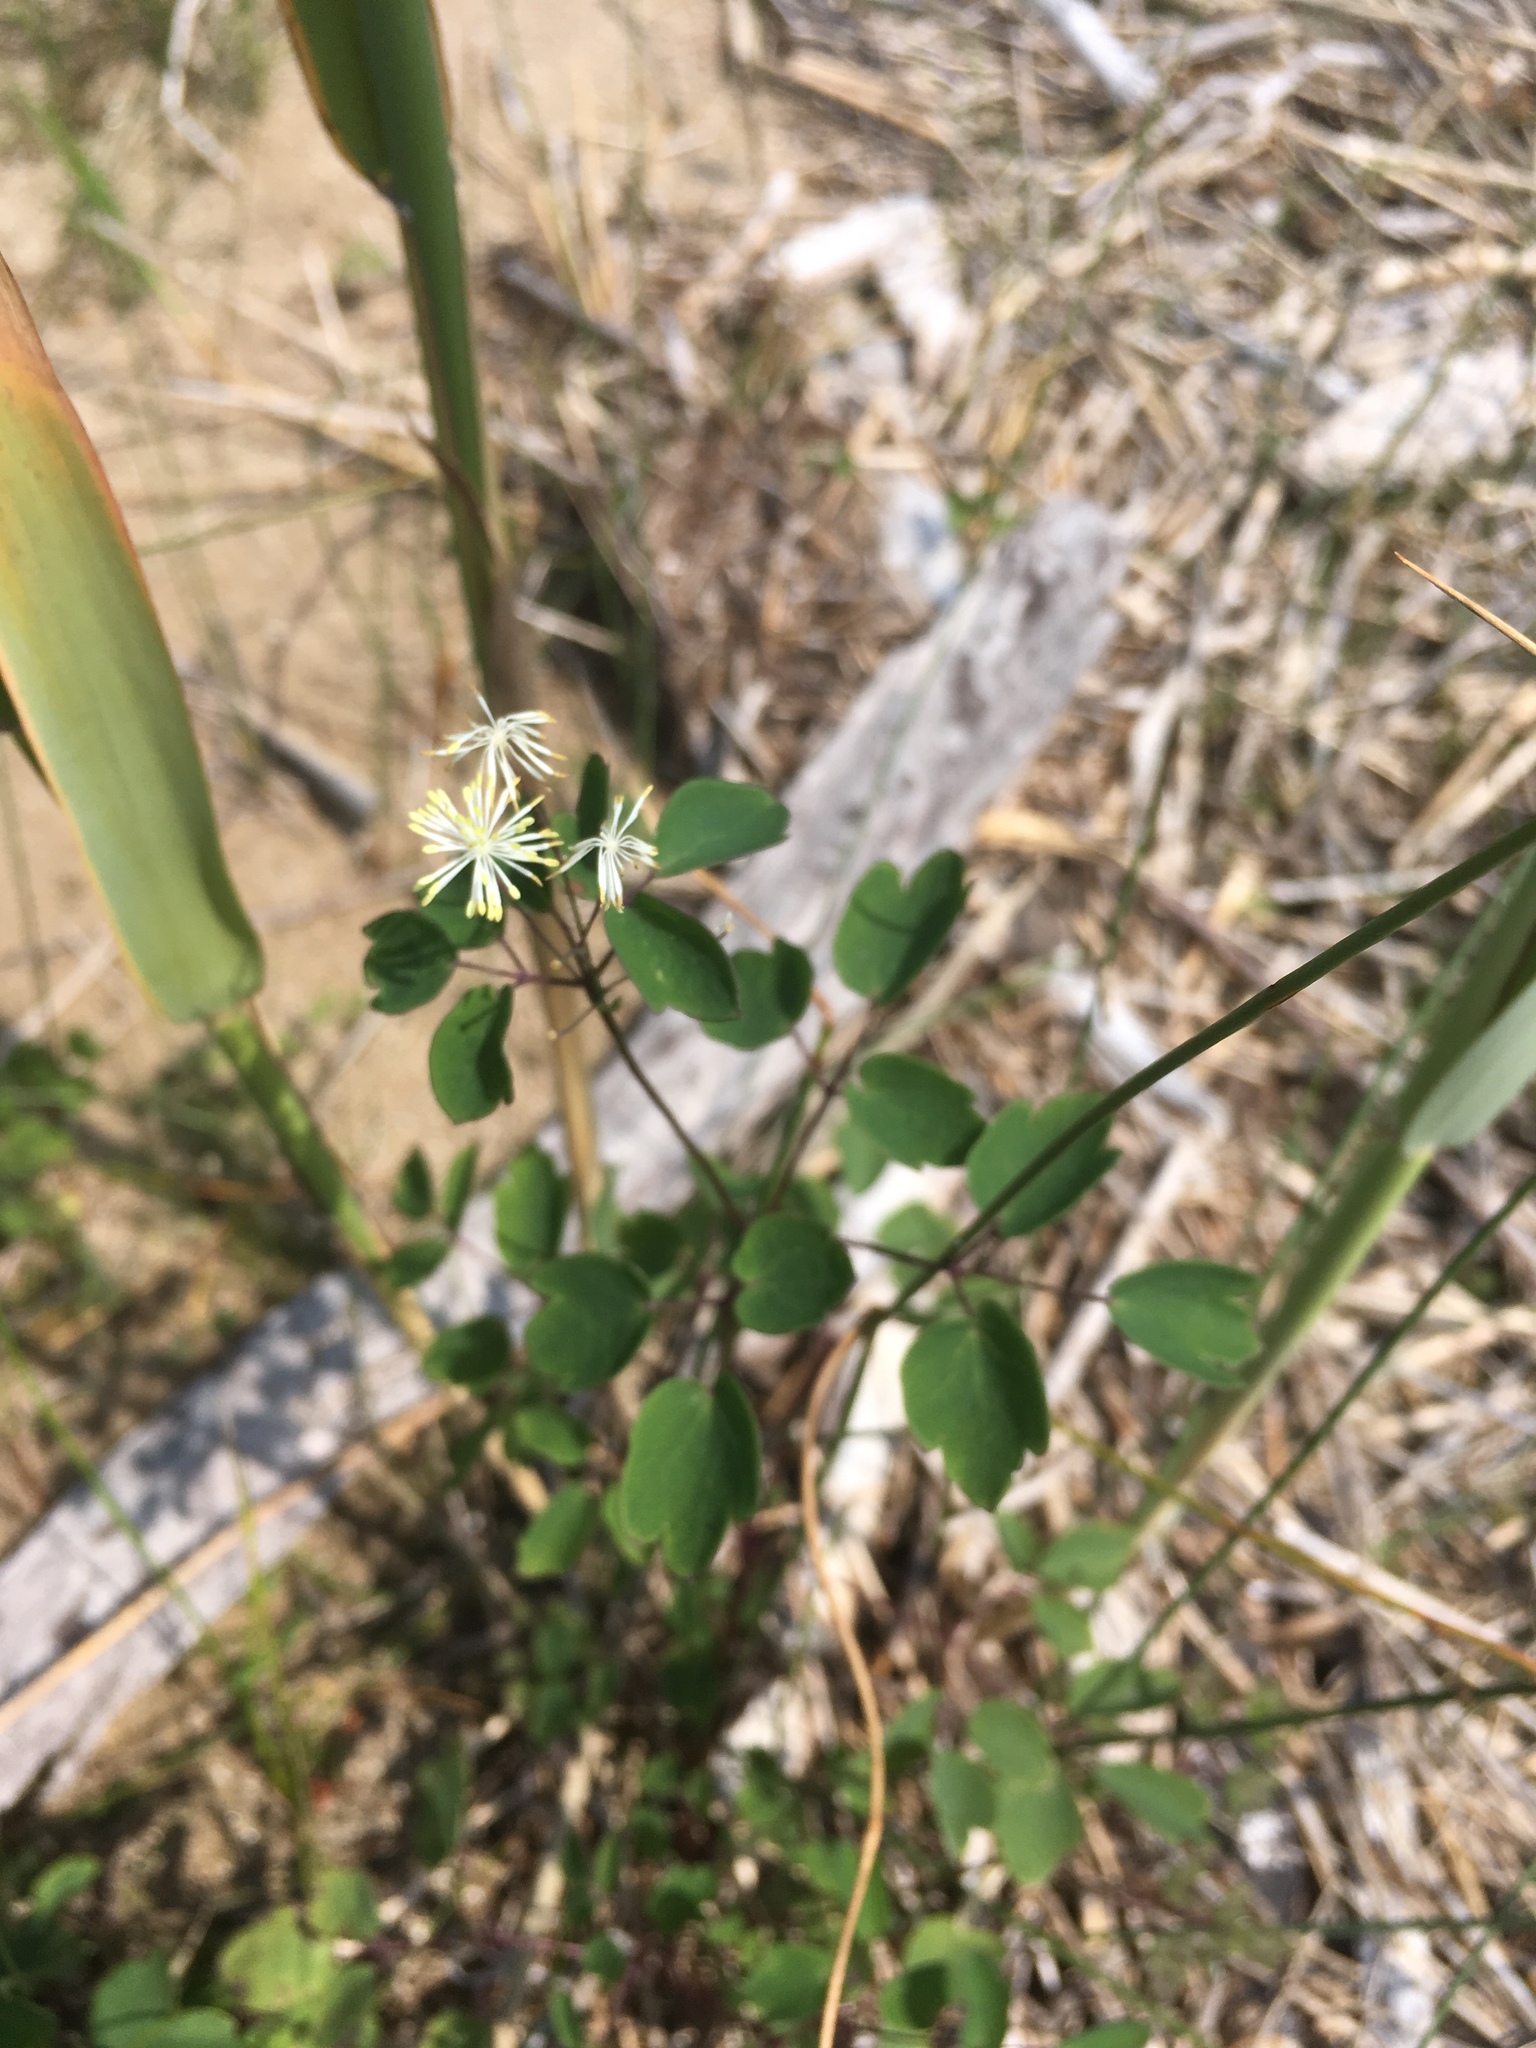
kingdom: Plantae
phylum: Tracheophyta
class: Magnoliopsida
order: Ranunculales
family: Ranunculaceae
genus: Thalictrum
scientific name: Thalictrum pubescens
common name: King-of-the-meadow
